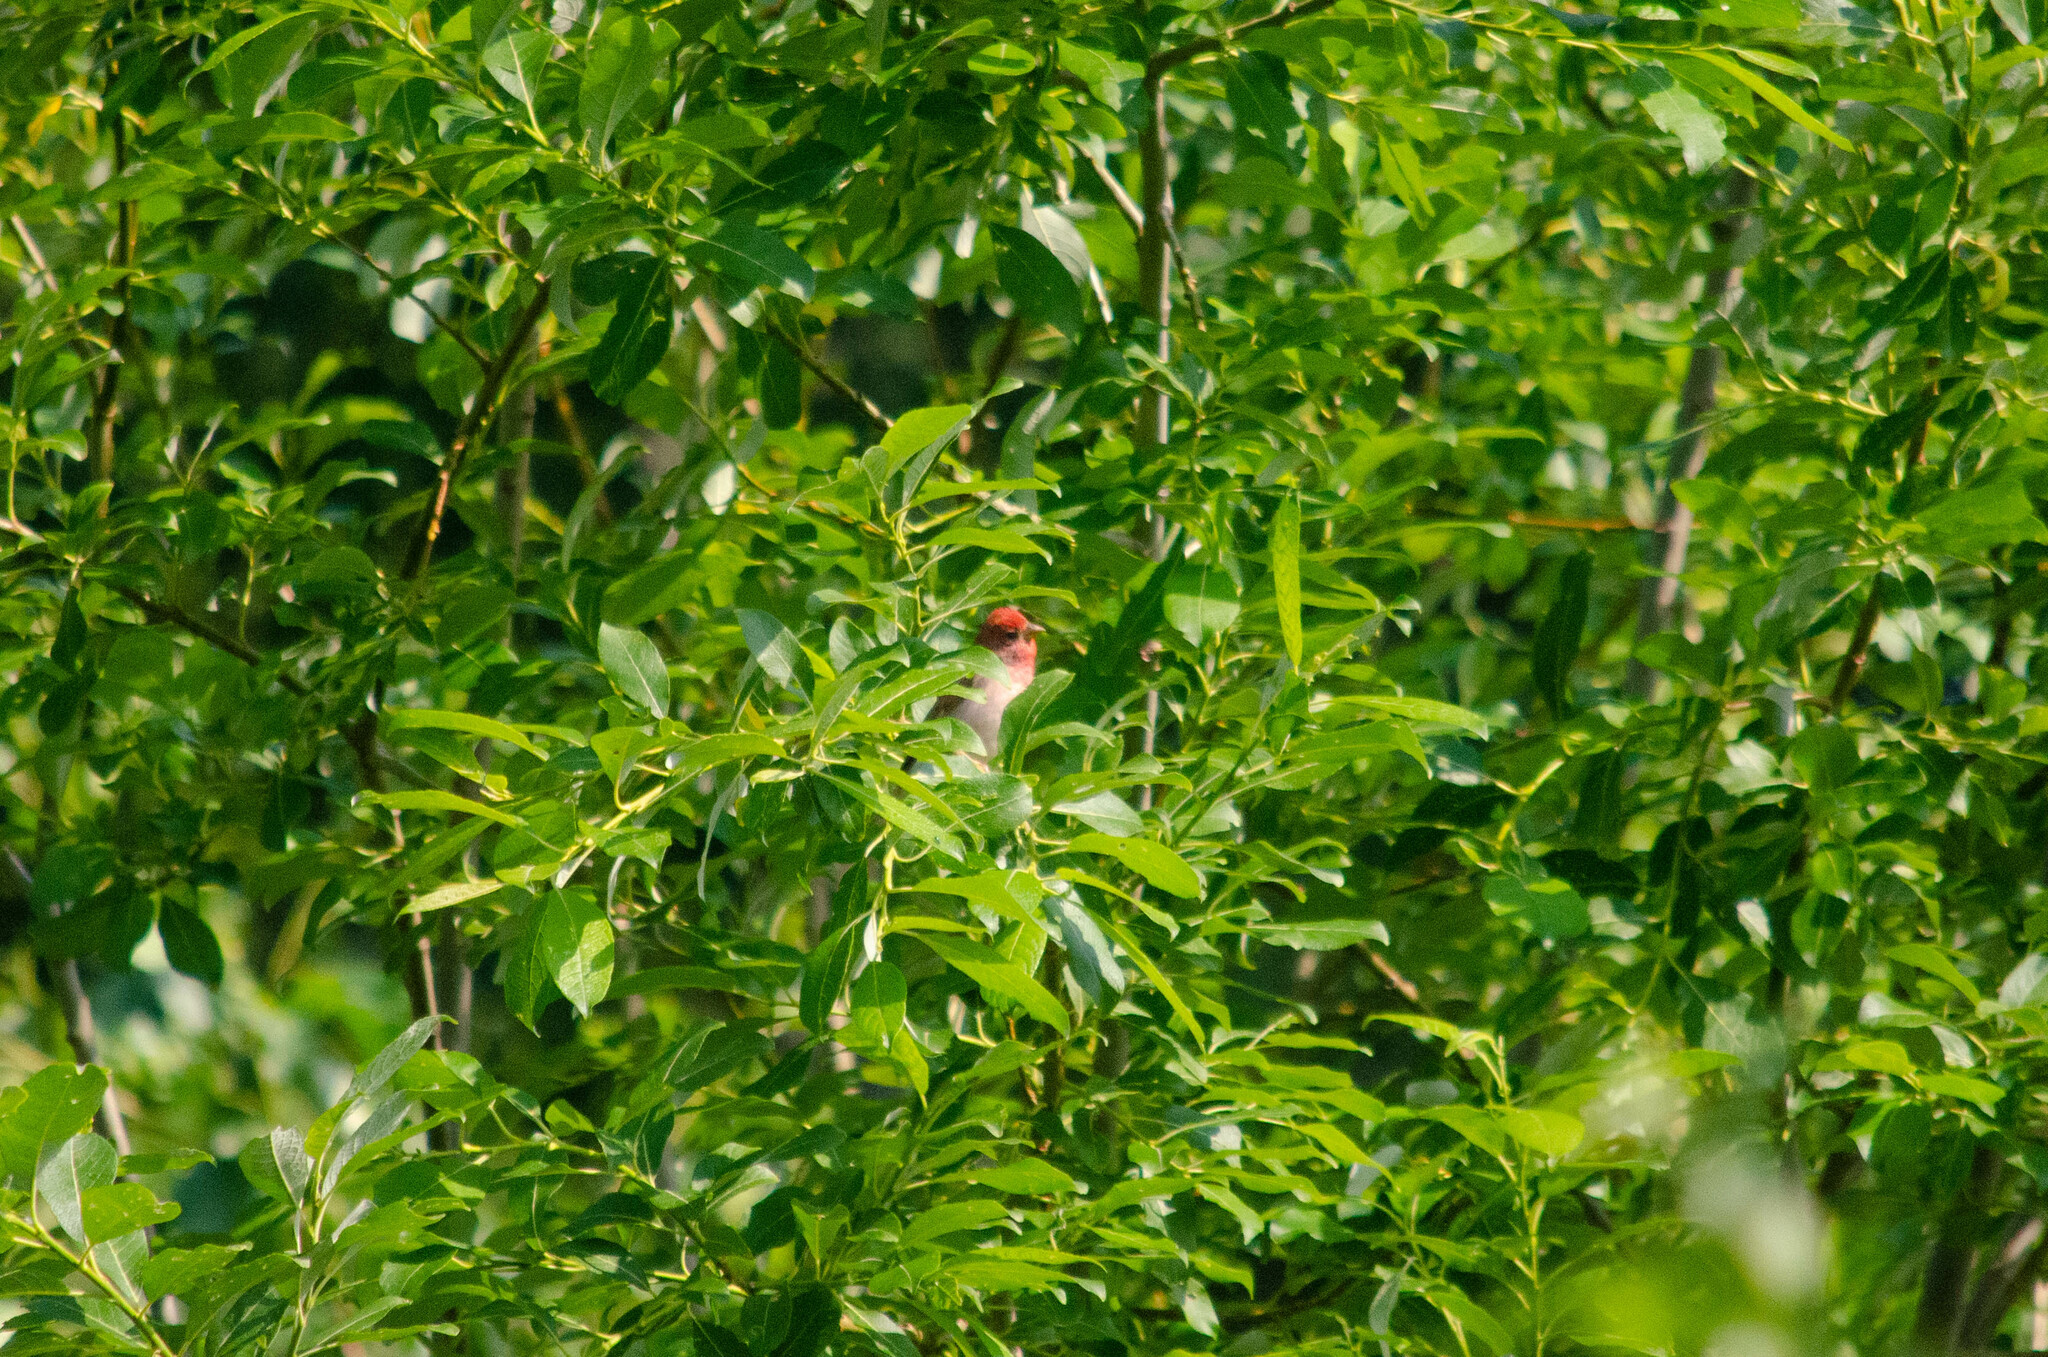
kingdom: Animalia
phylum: Chordata
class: Aves
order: Passeriformes
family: Fringillidae
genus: Carpodacus
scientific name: Carpodacus erythrinus
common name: Common rosefinch
